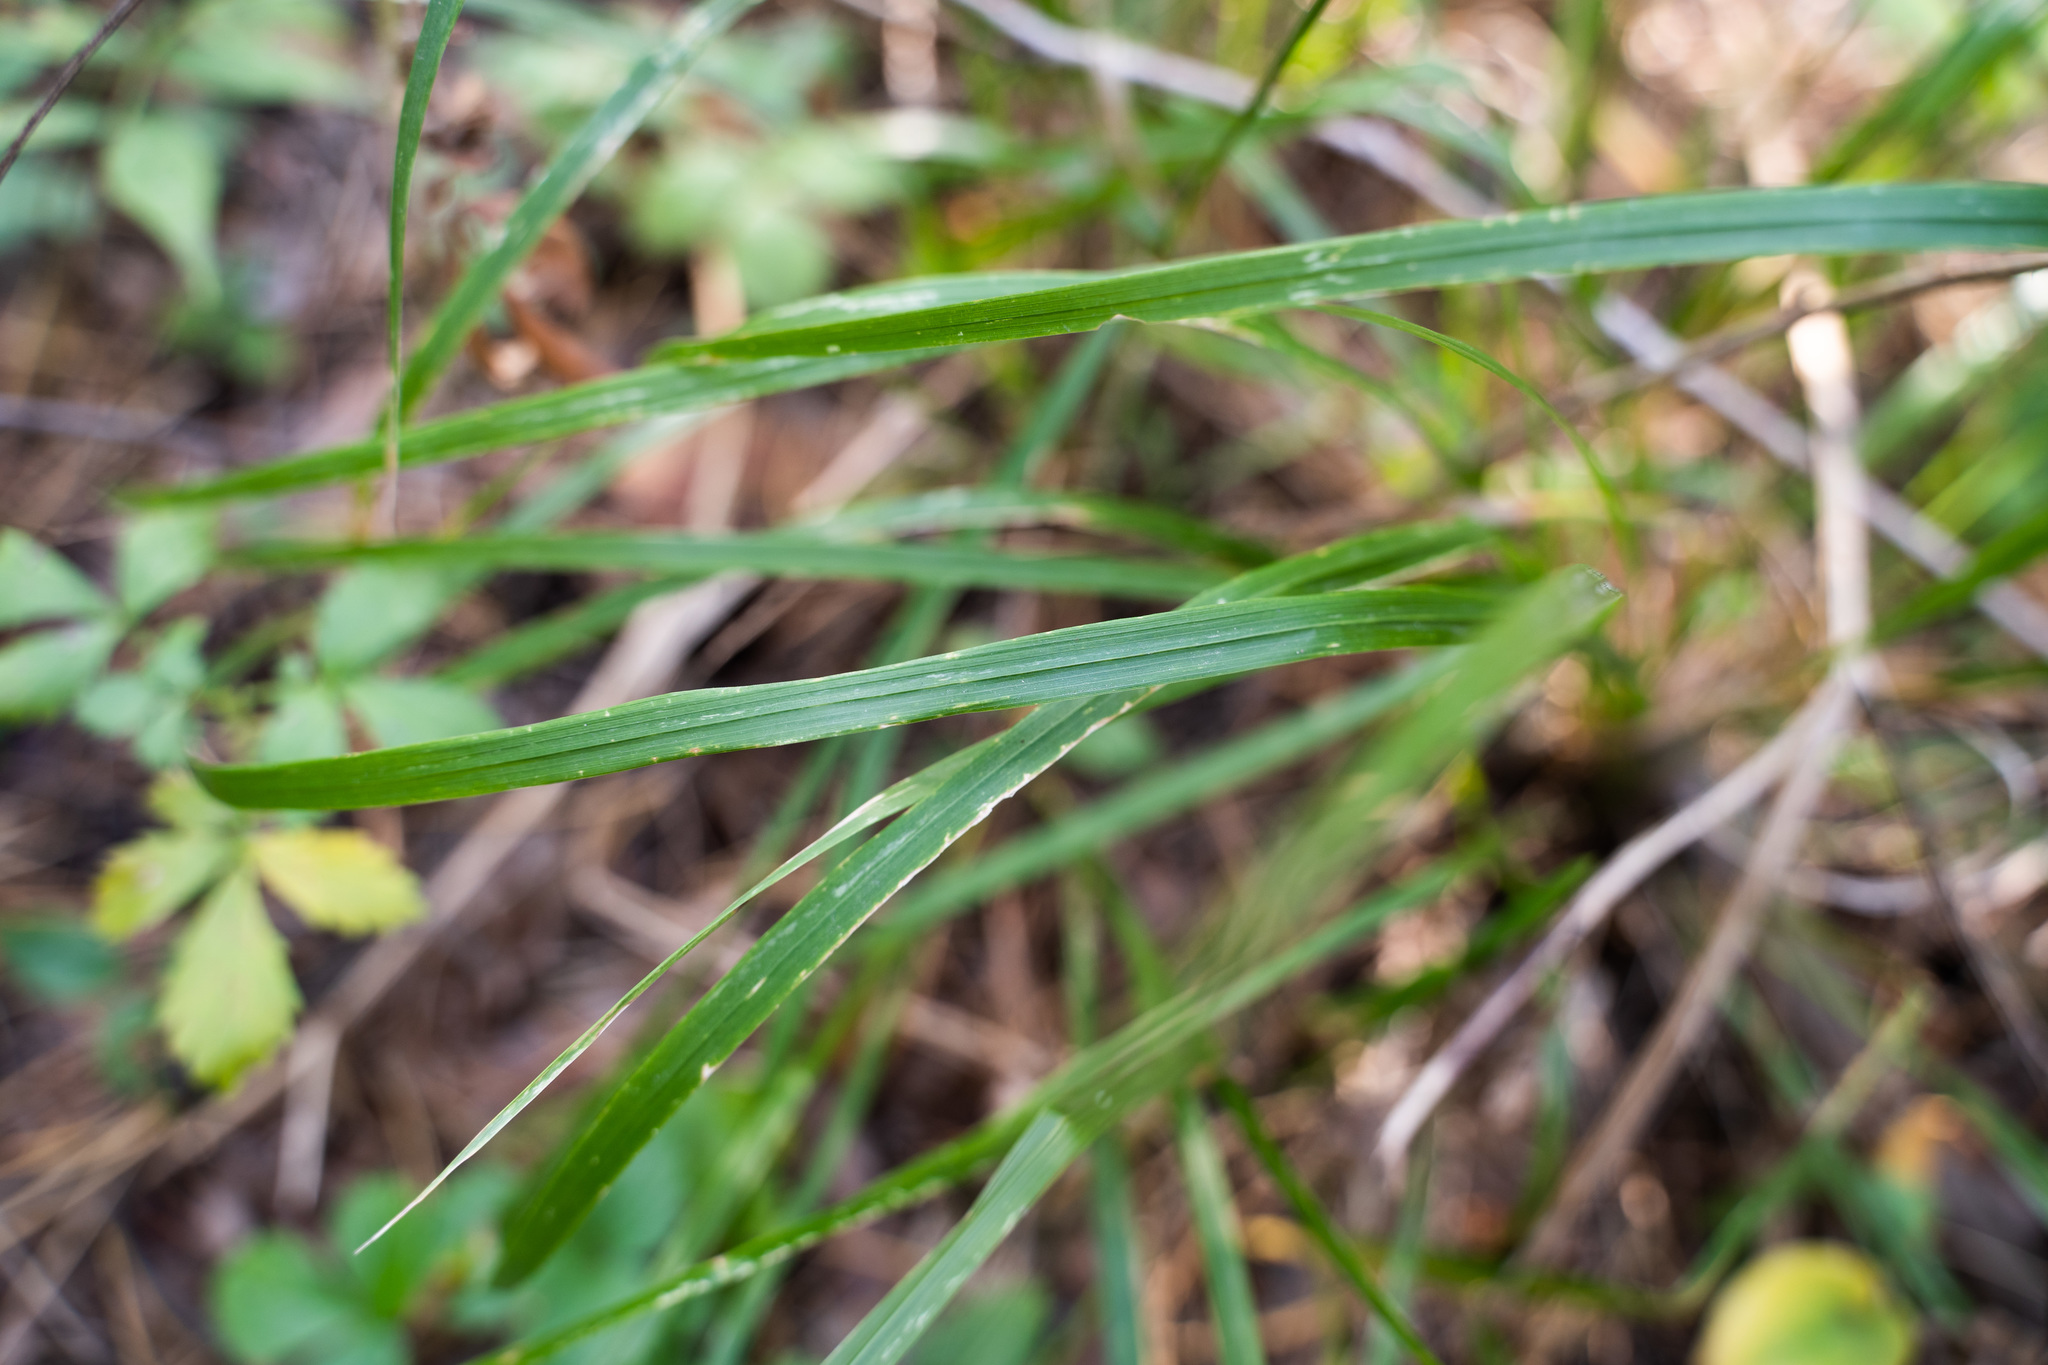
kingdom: Plantae
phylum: Tracheophyta
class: Liliopsida
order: Poales
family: Poaceae
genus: Calamagrostis
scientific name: Calamagrostis arundinacea
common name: Metskastik
